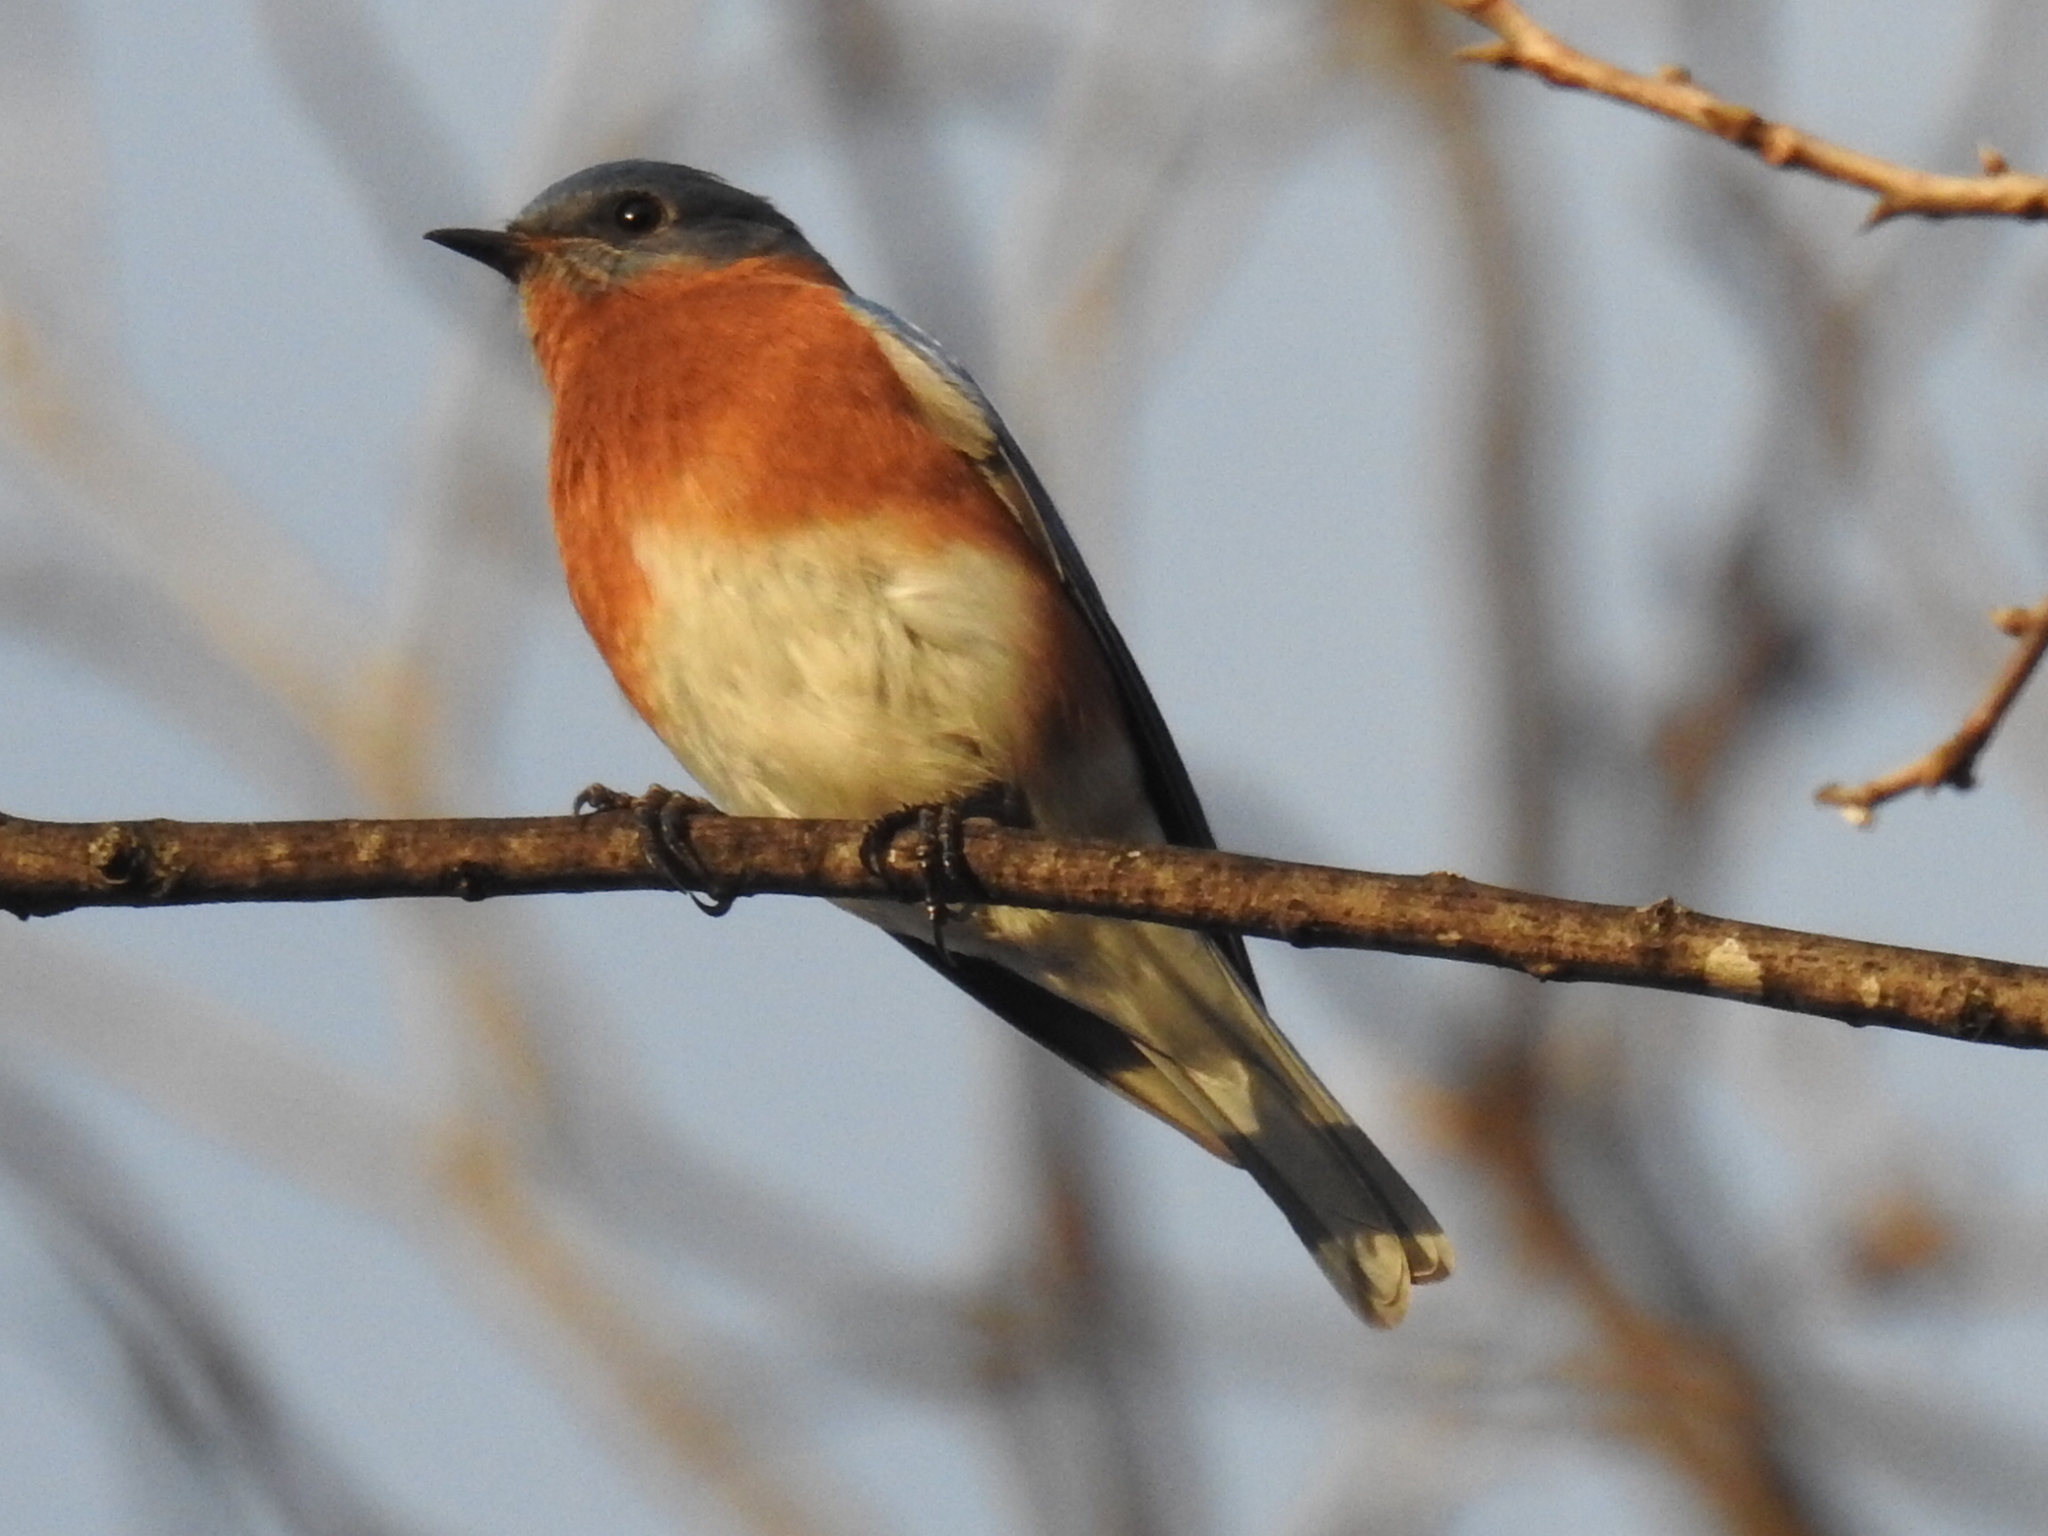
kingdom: Animalia
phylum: Chordata
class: Aves
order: Passeriformes
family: Turdidae
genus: Sialia
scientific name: Sialia sialis
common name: Eastern bluebird
